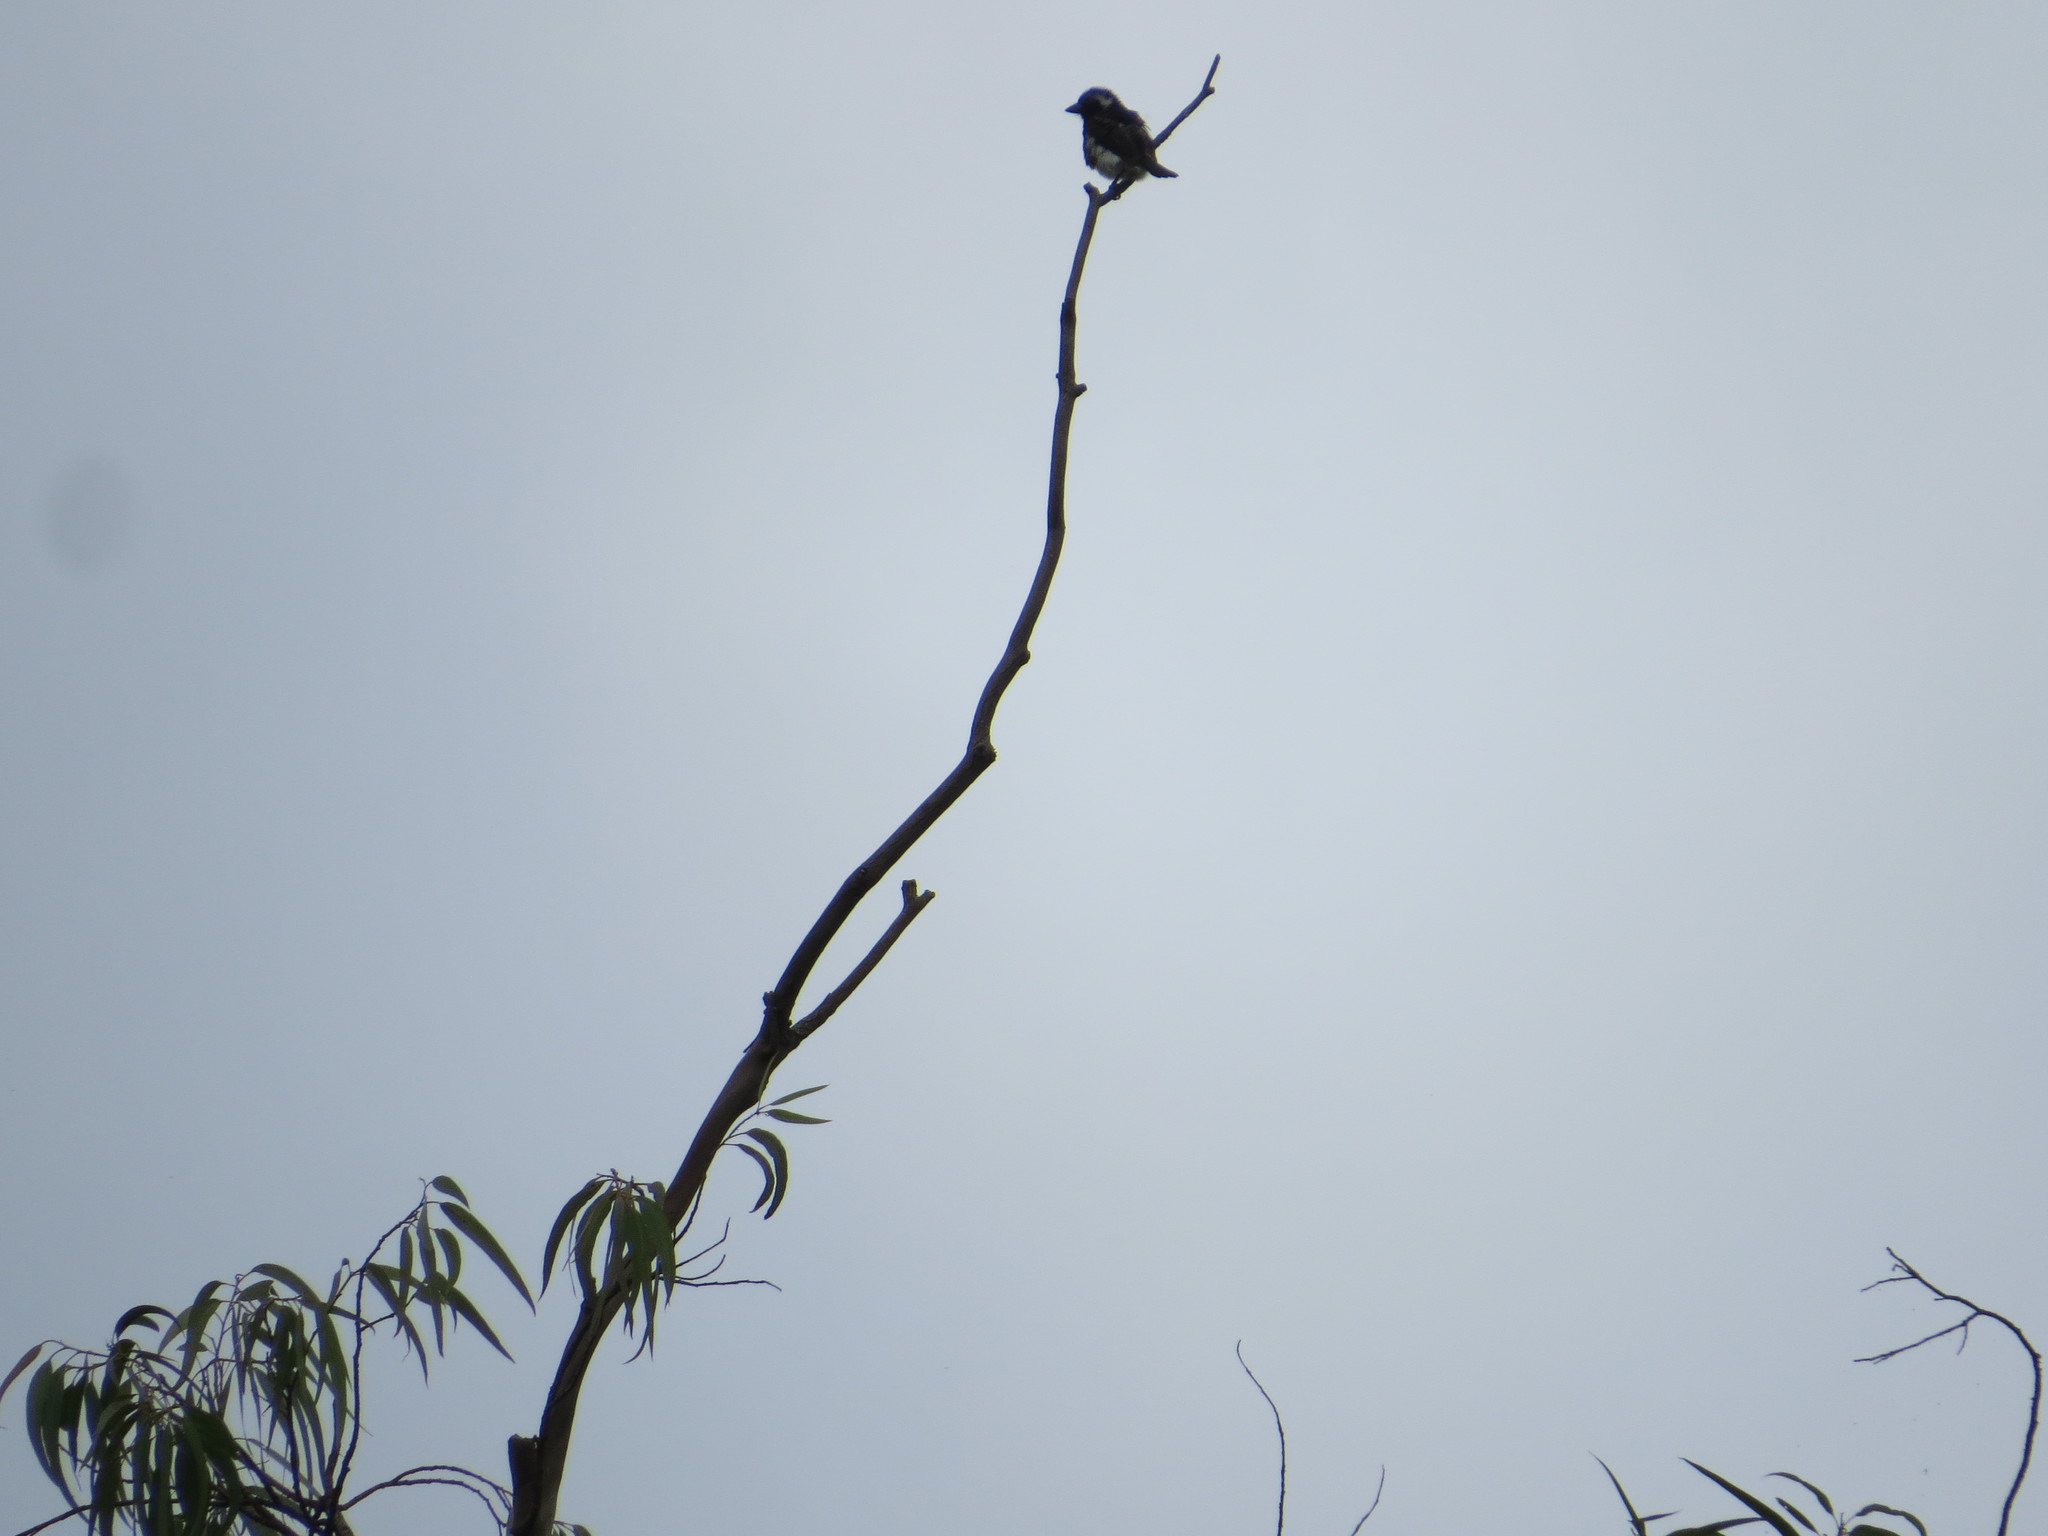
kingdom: Animalia
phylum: Chordata
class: Aves
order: Piciformes
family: Lybiidae
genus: Stactolaema
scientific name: Stactolaema leucotis
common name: White-eared barbet
